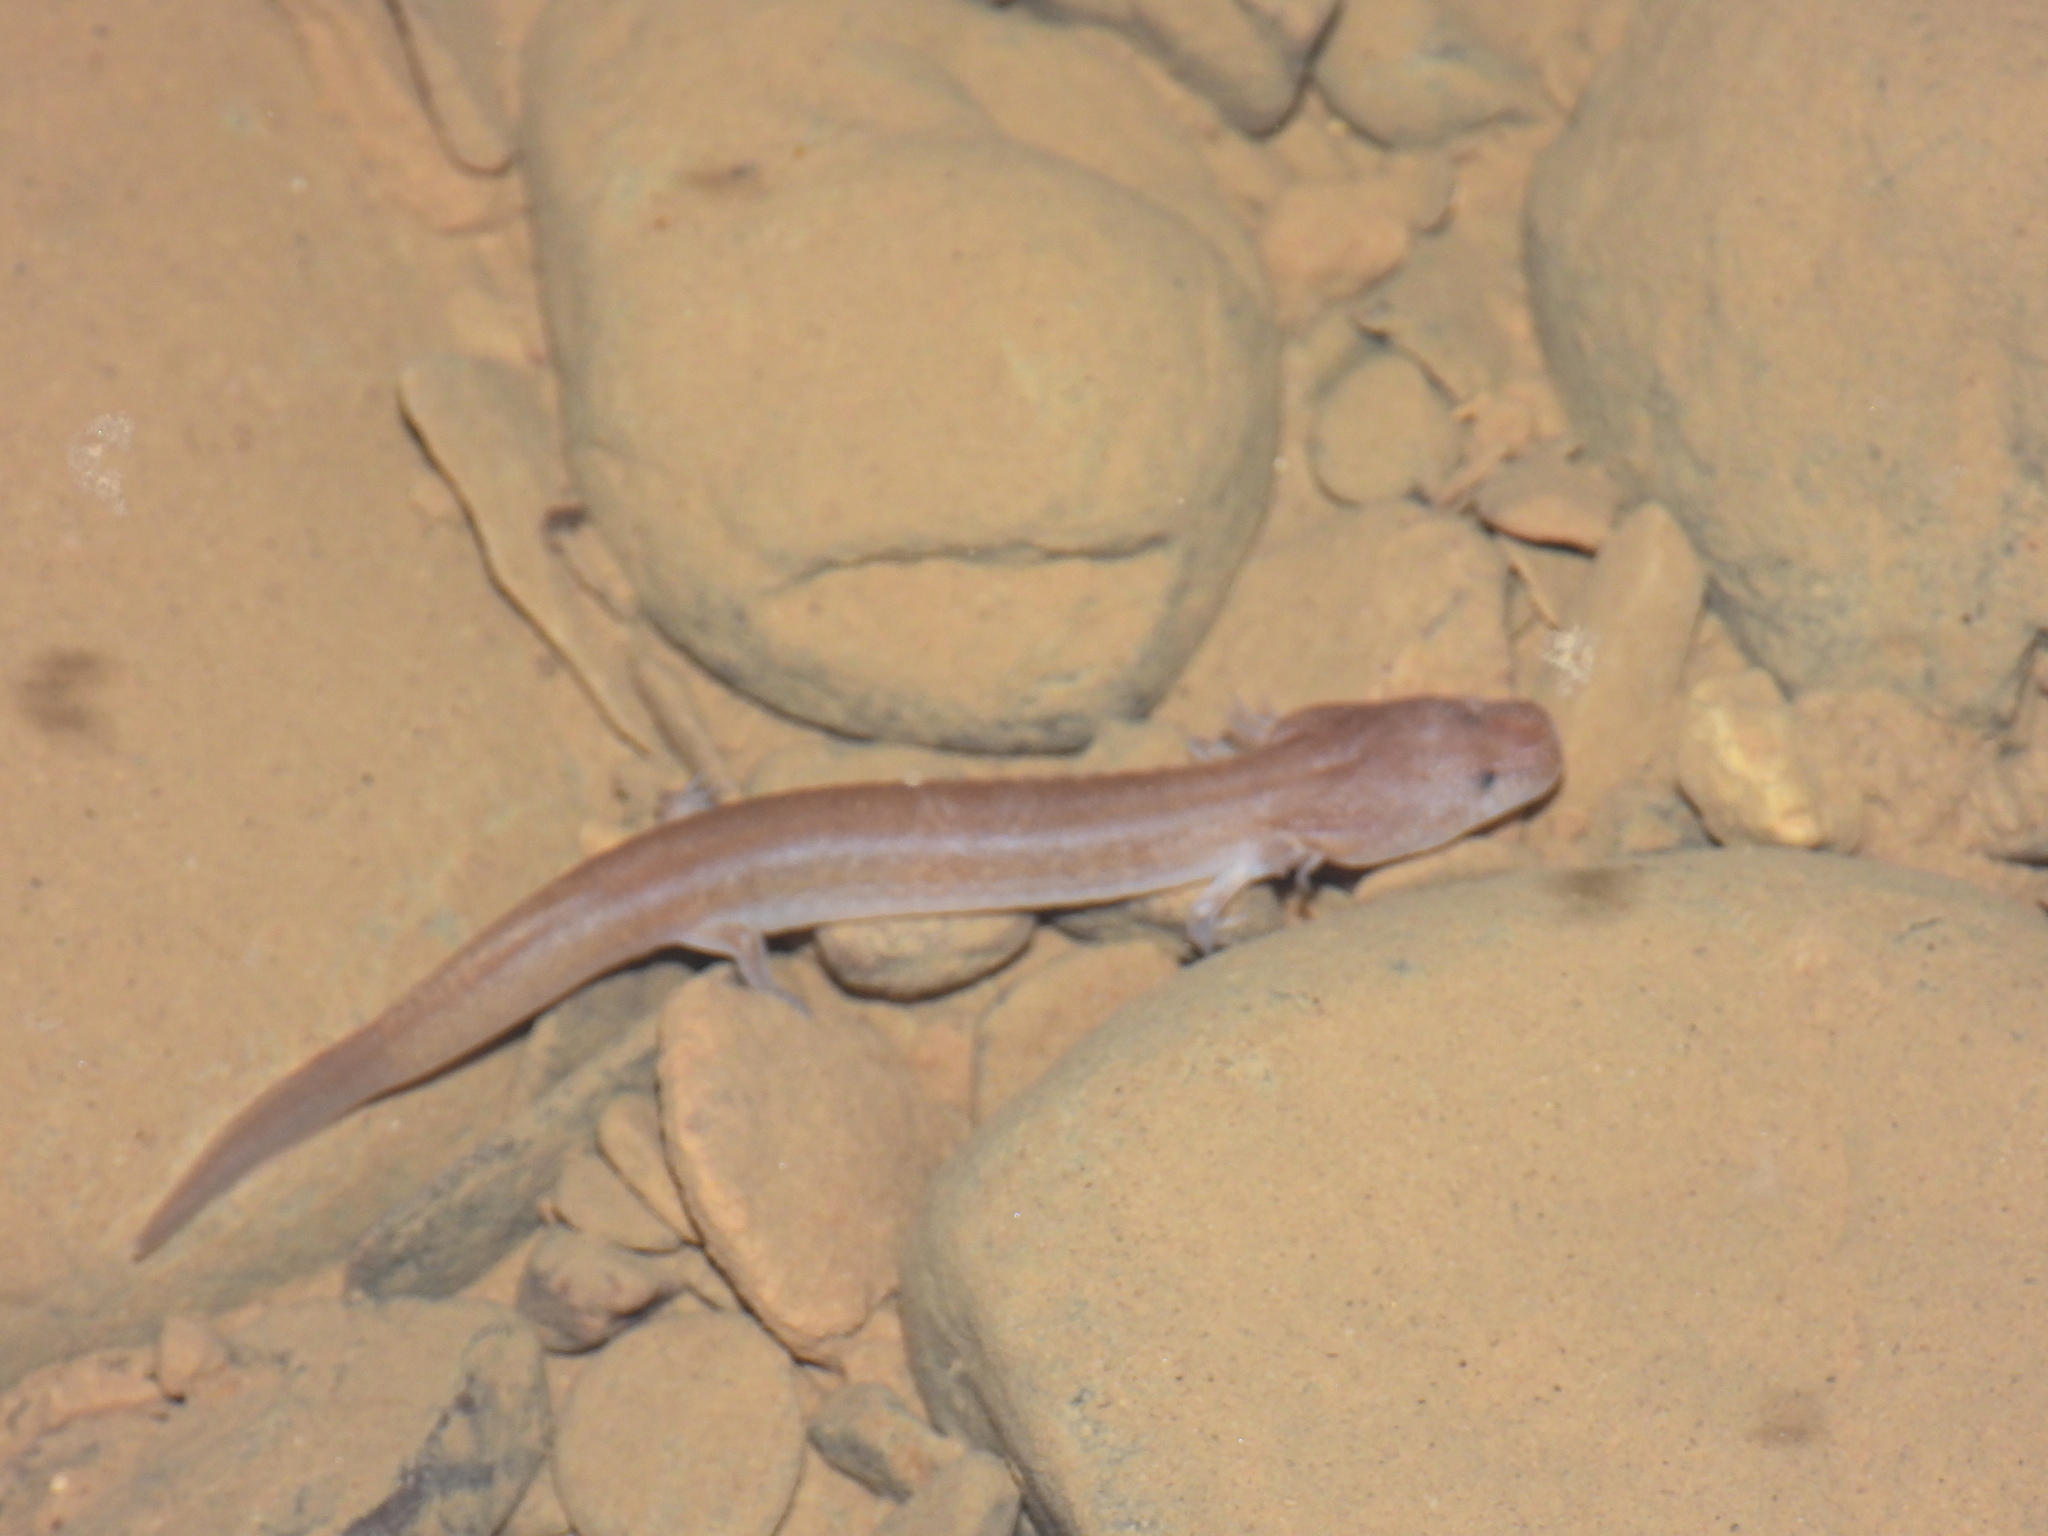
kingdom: Animalia
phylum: Chordata
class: Amphibia
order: Caudata
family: Plethodontidae
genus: Gyrinophilus
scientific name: Gyrinophilus palleucus
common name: Tennessee cave salamander
